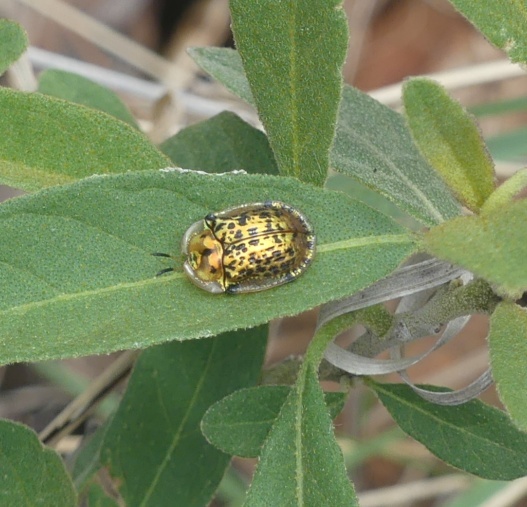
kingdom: Animalia
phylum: Arthropoda
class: Insecta
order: Coleoptera
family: Chrysomelidae
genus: Conchyloctenia
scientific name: Conchyloctenia tripuncticollis
